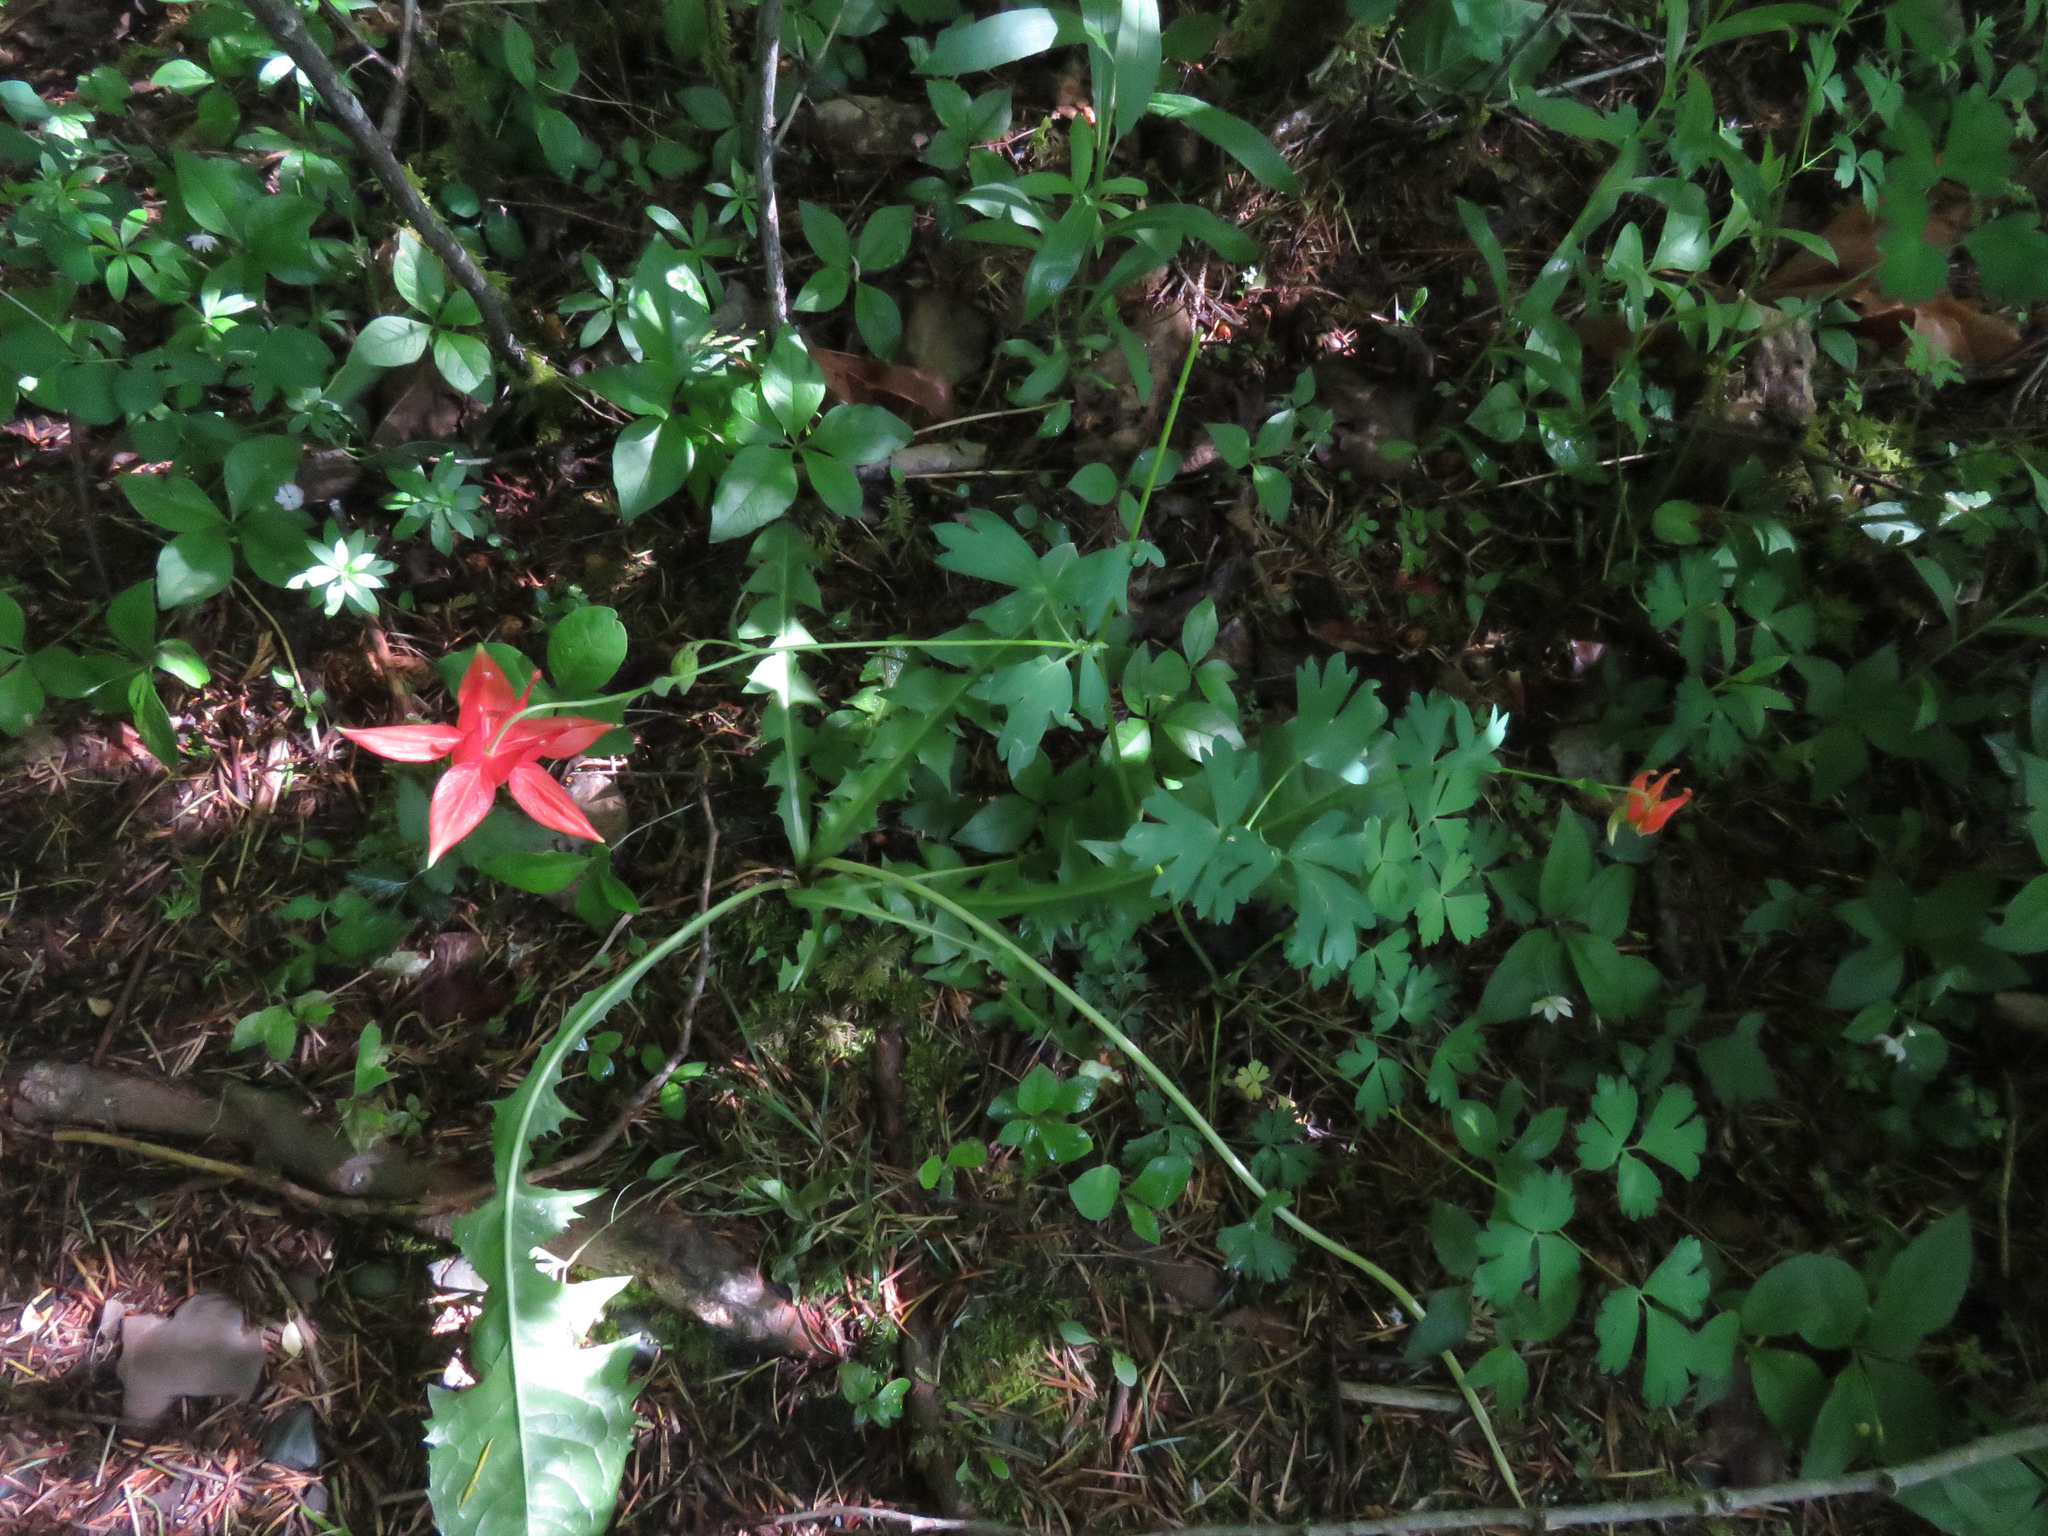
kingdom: Plantae
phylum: Tracheophyta
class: Magnoliopsida
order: Ranunculales
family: Ranunculaceae
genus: Aquilegia
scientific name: Aquilegia formosa
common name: Sitka columbine
